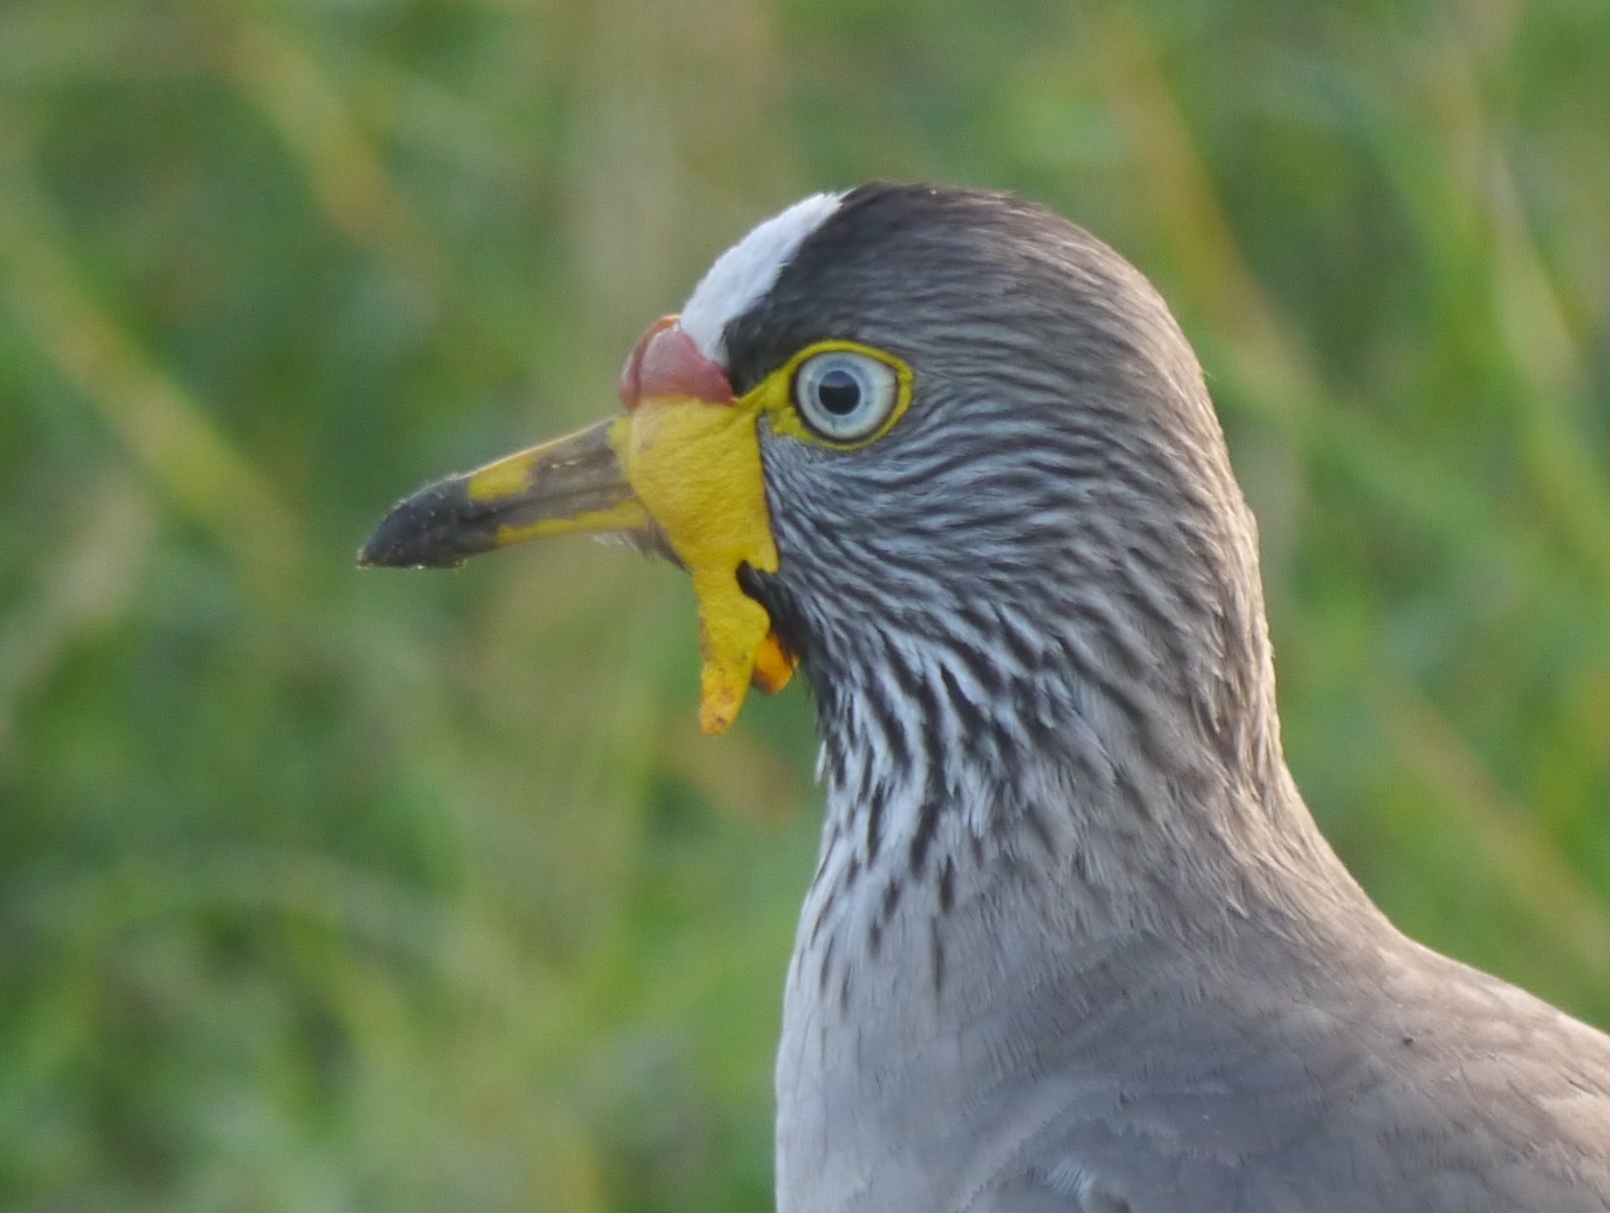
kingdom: Animalia
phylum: Chordata
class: Aves
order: Charadriiformes
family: Charadriidae
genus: Vanellus
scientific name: Vanellus senegallus
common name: African wattled lapwing
